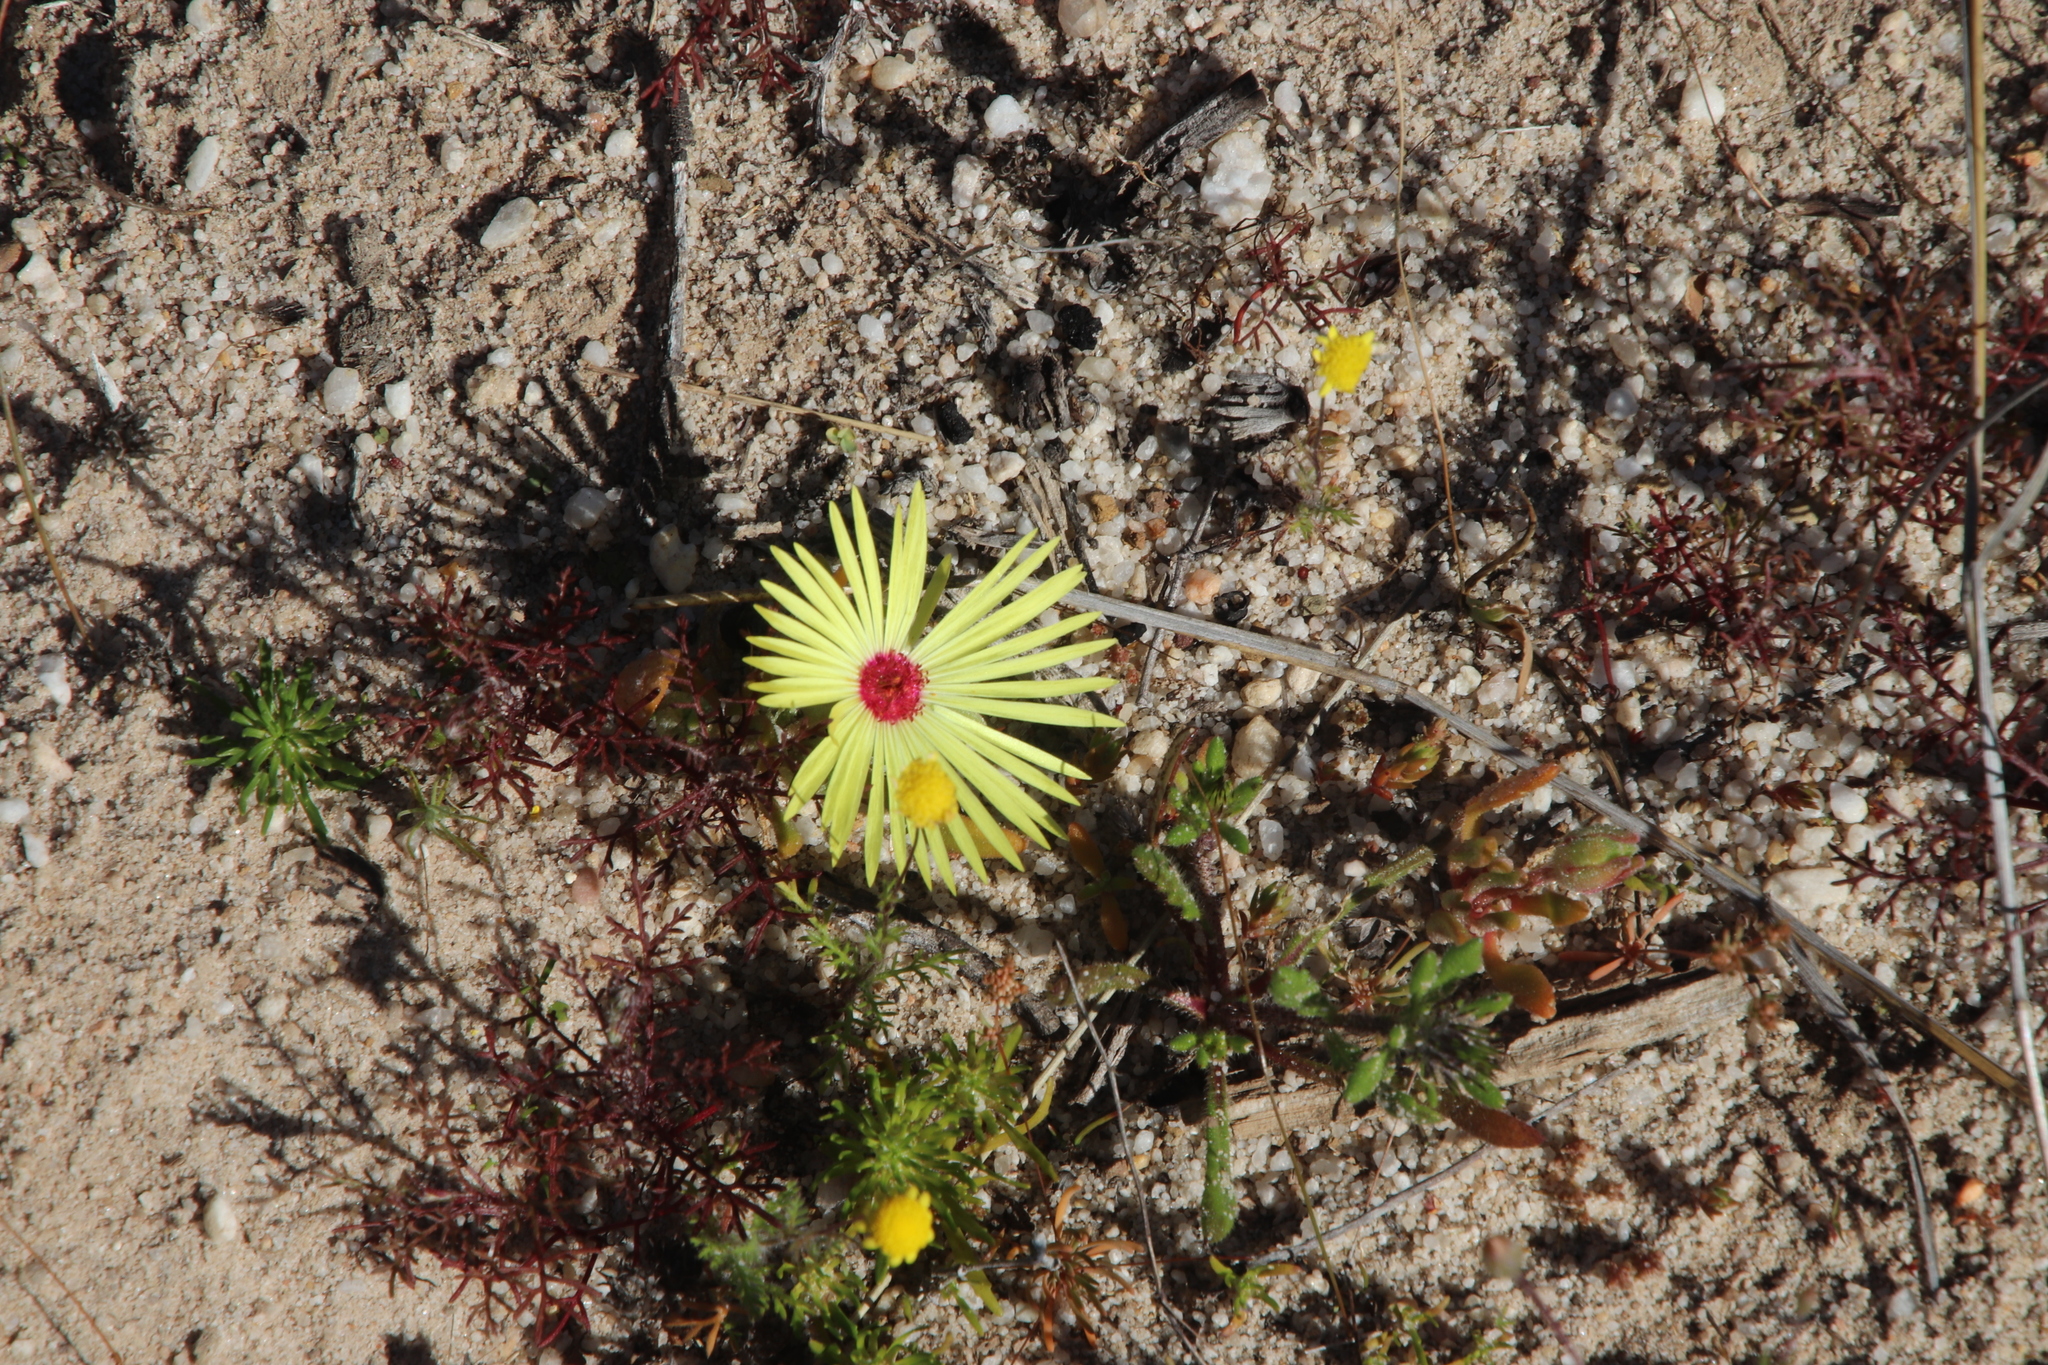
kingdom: Plantae
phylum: Tracheophyta
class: Magnoliopsida
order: Caryophyllales
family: Aizoaceae
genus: Cleretum
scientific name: Cleretum bellidiforme
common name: Livingstone daisy
